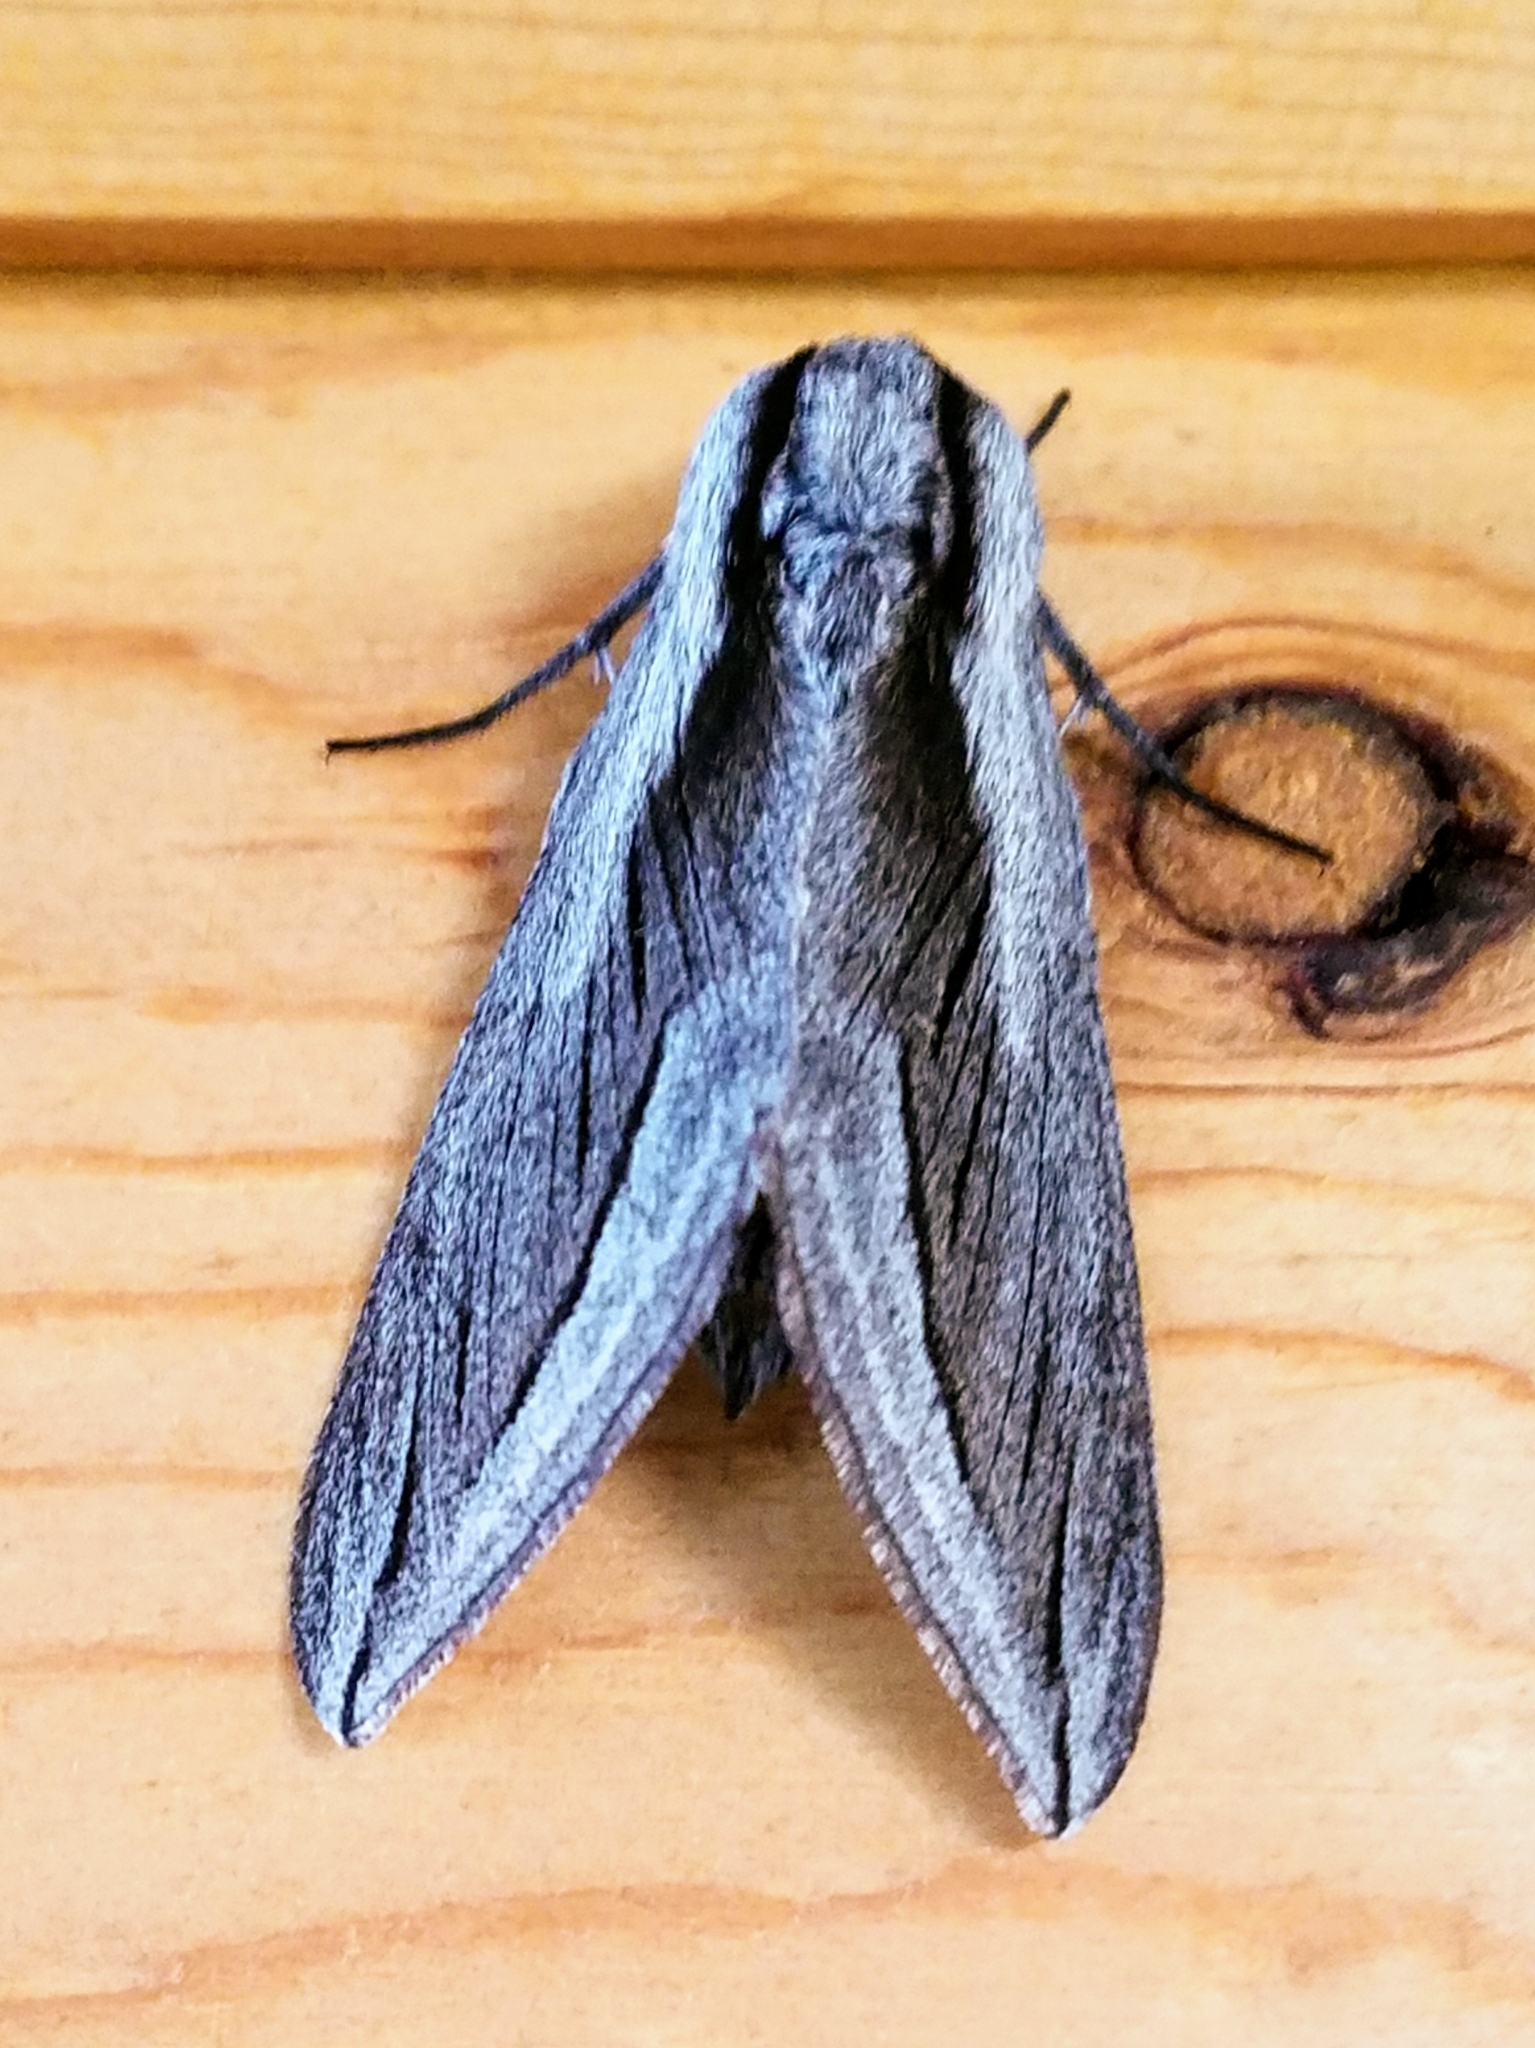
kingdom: Animalia
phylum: Arthropoda
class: Insecta
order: Lepidoptera
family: Sphingidae
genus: Sphinx
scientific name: Sphinx vashti
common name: Snowberry sphinx
